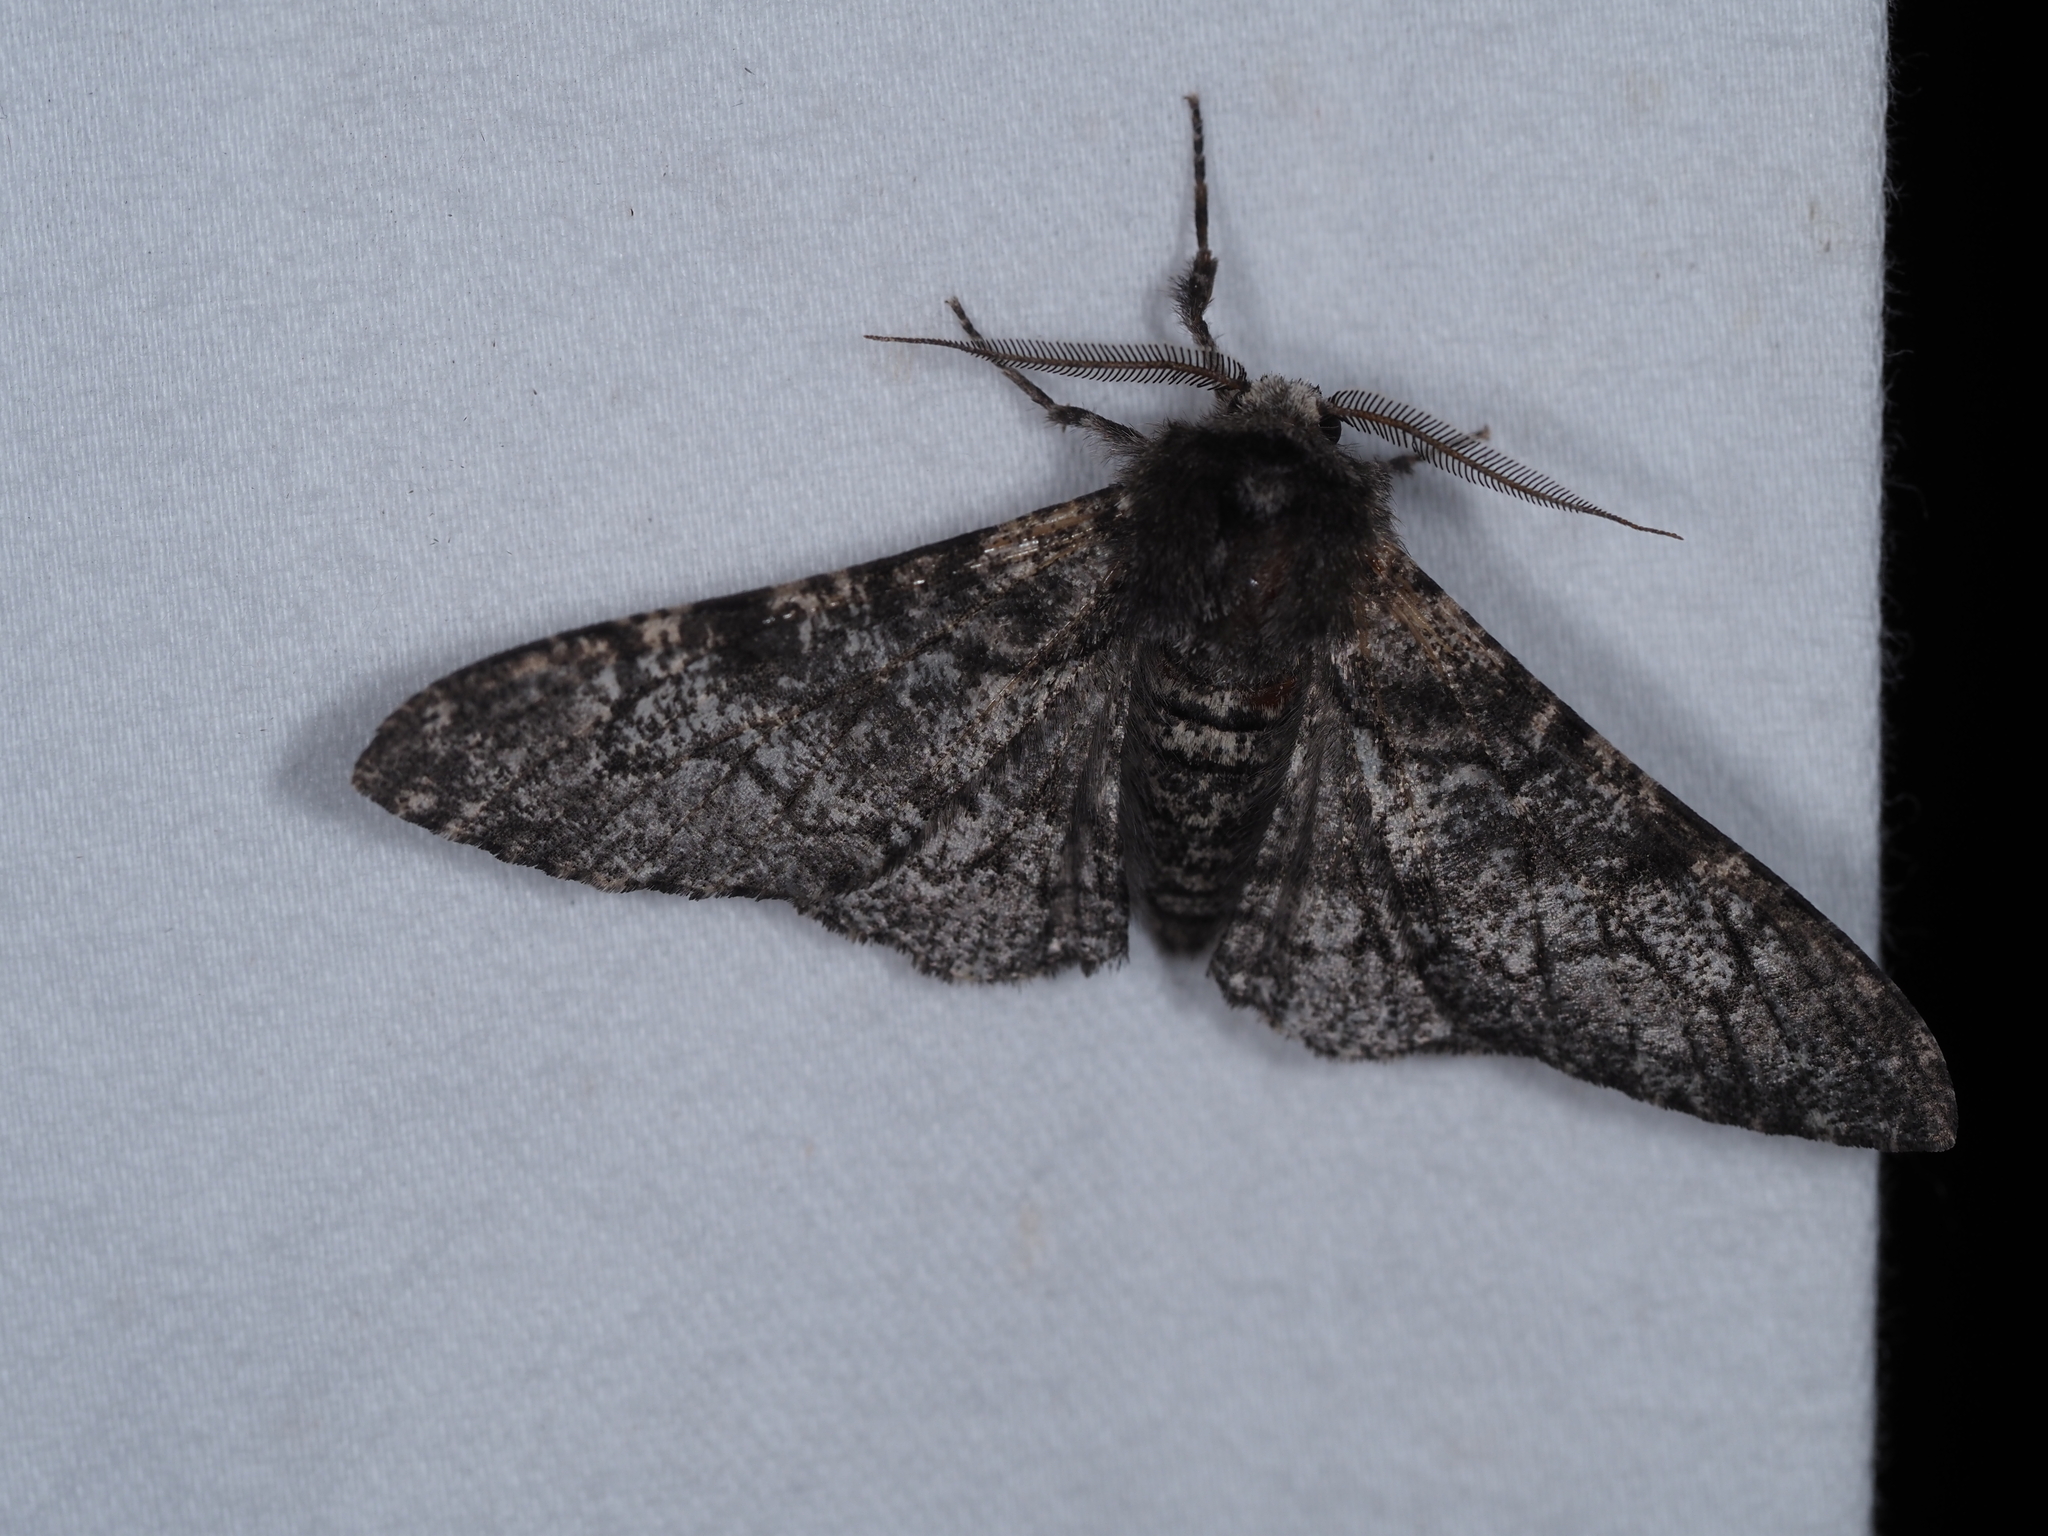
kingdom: Animalia
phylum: Arthropoda
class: Insecta
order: Lepidoptera
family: Geometridae
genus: Biston
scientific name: Biston betularia
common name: Peppered moth
